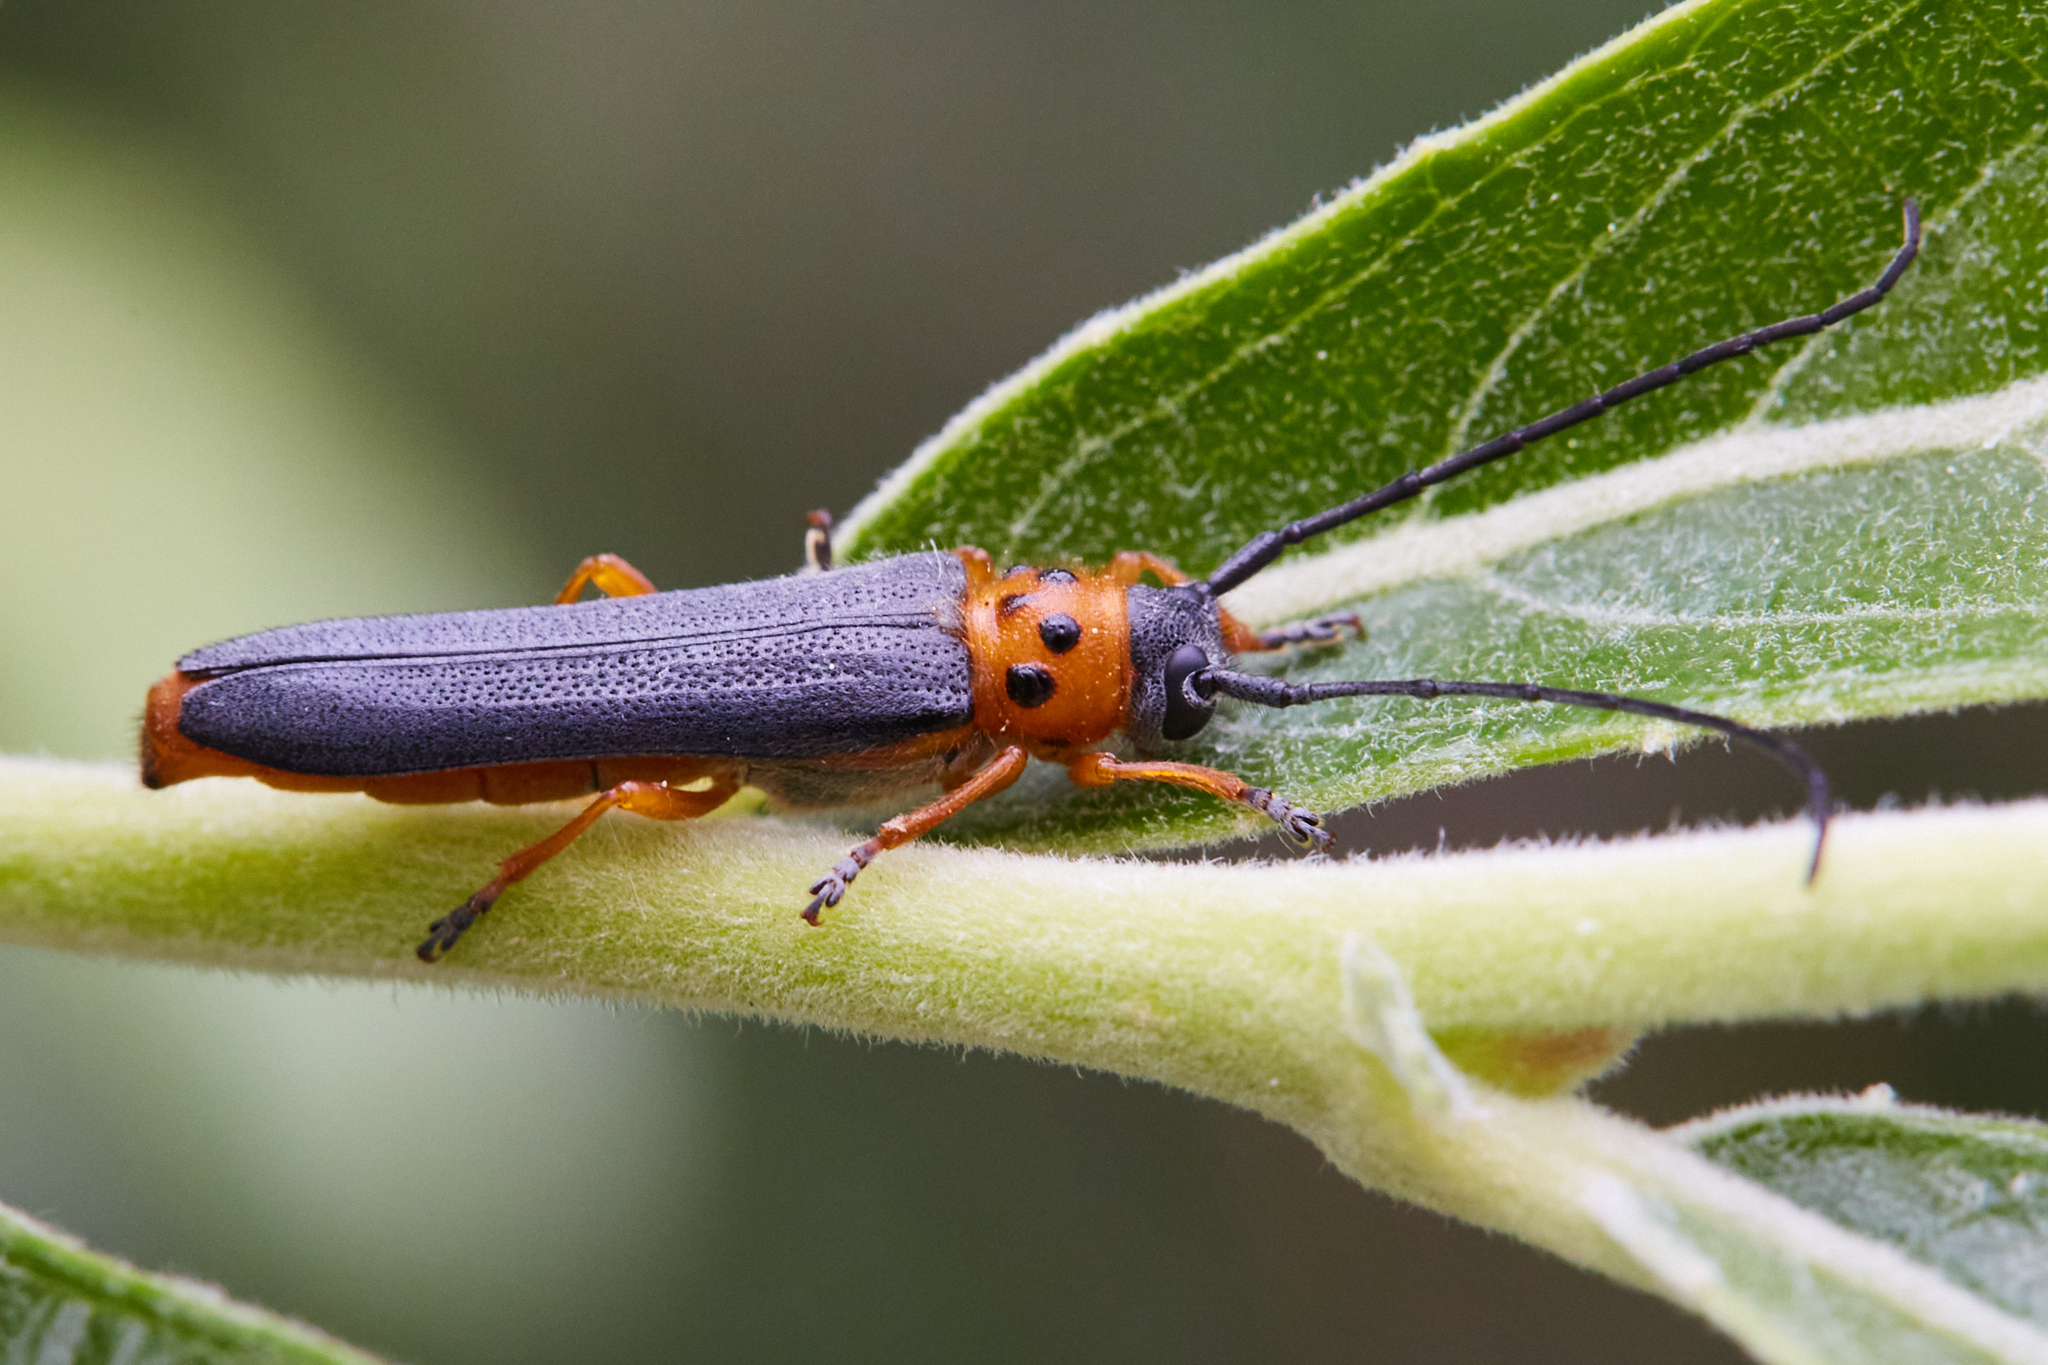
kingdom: Animalia
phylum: Arthropoda
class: Insecta
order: Coleoptera
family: Cerambycidae
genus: Oberea
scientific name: Oberea quadricallosa
